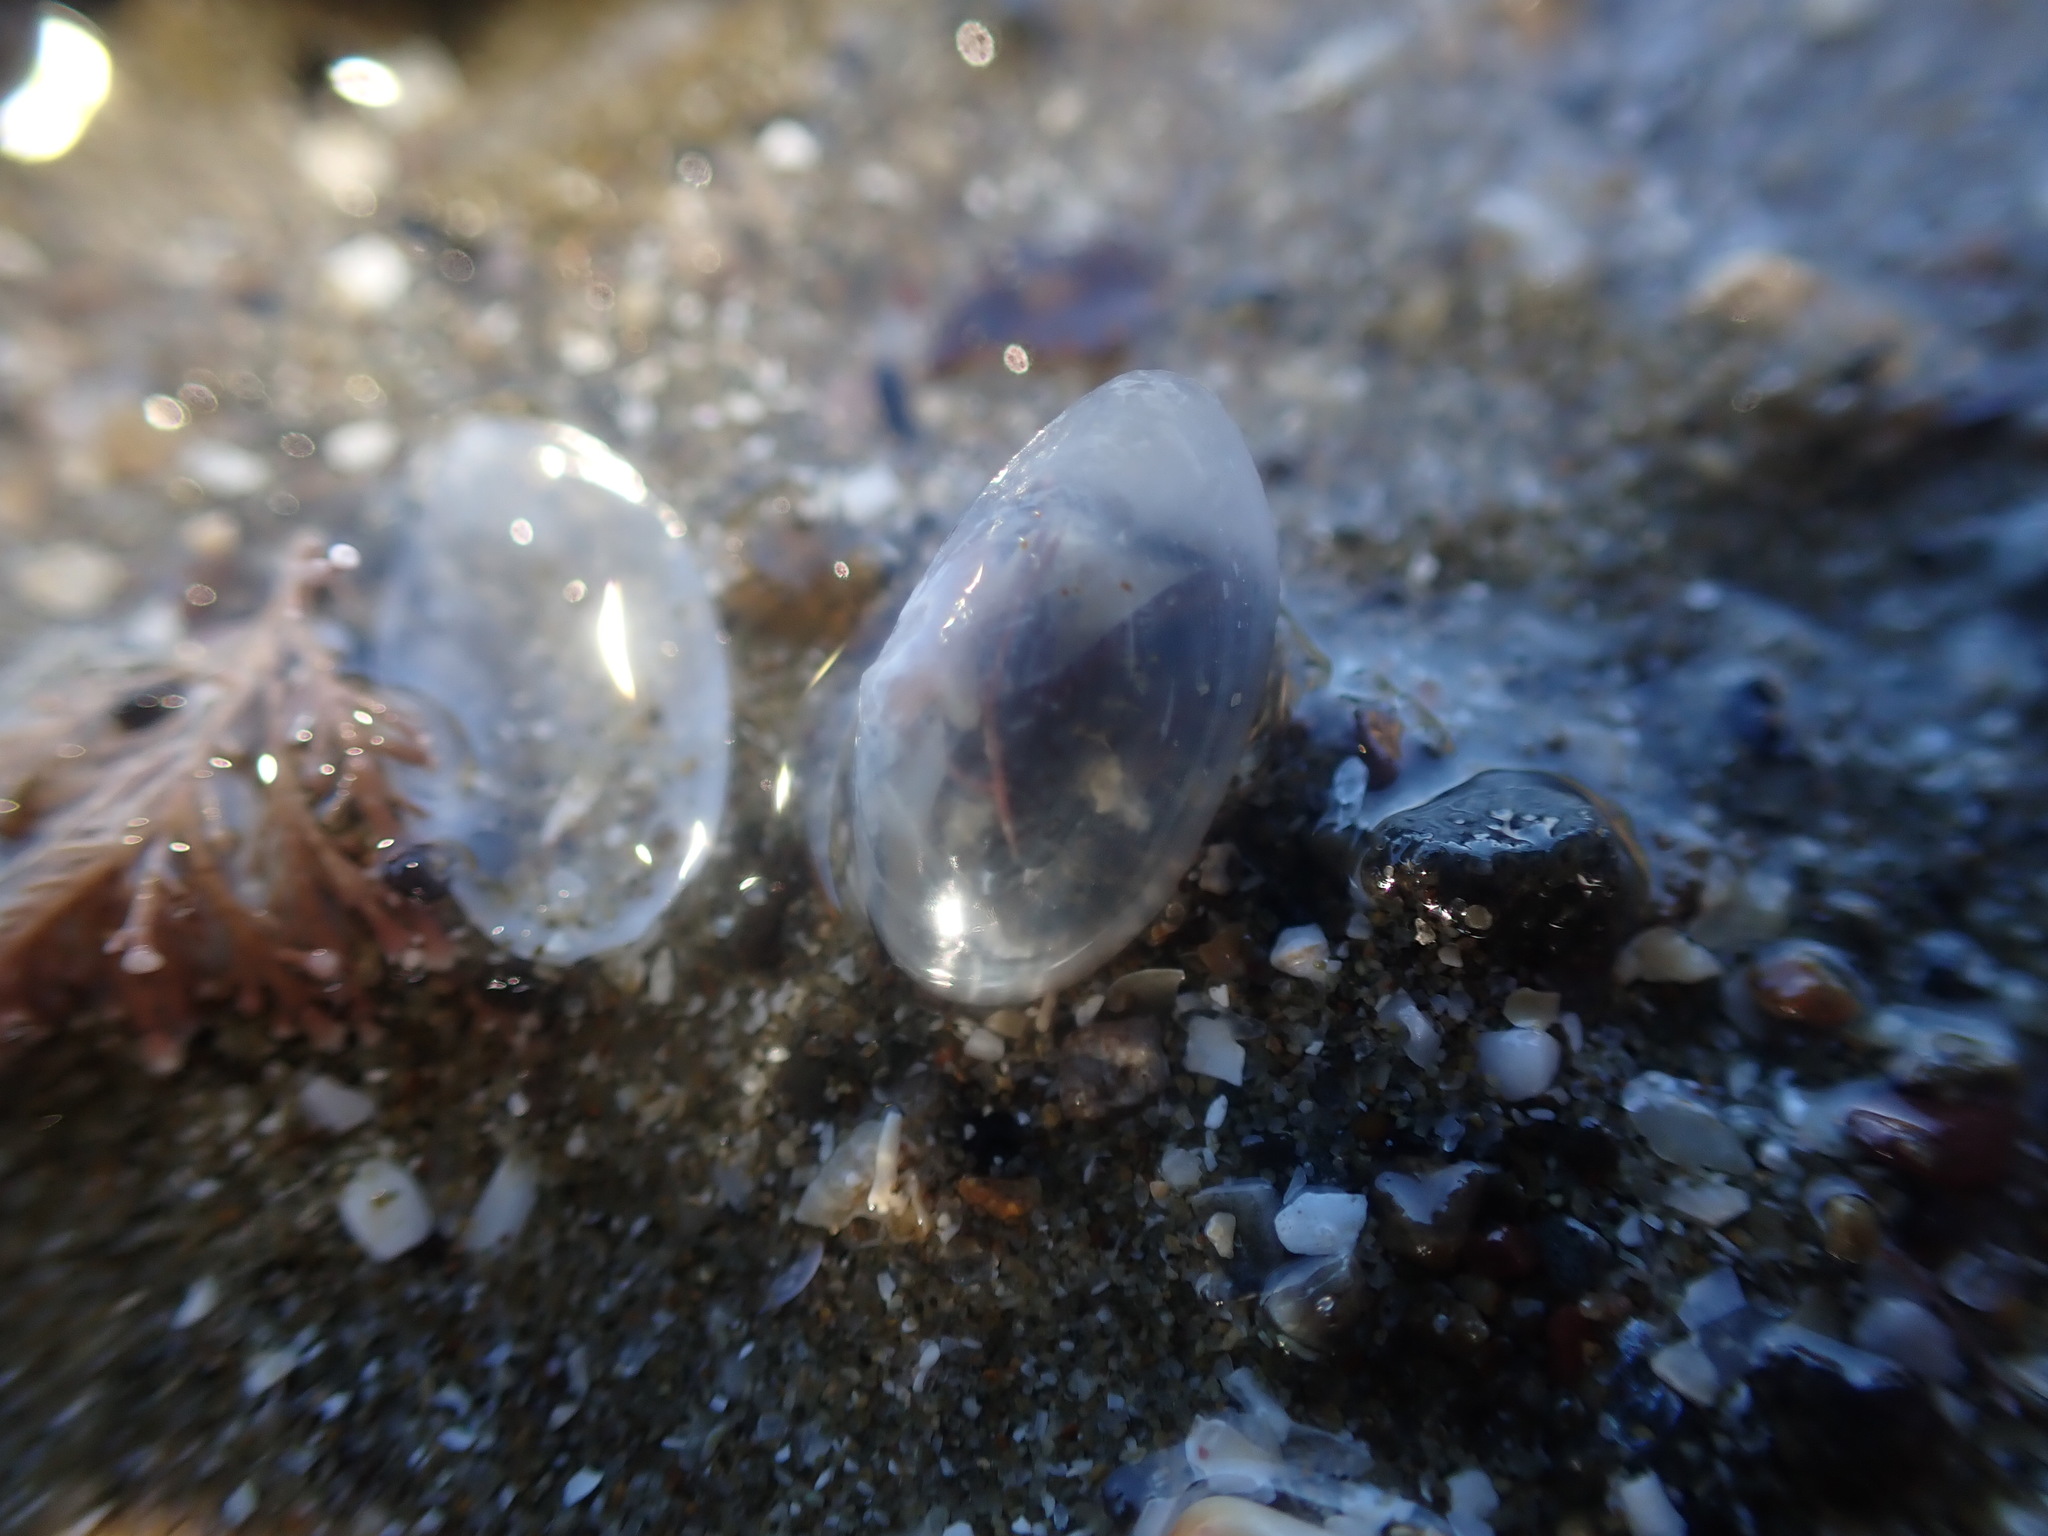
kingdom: Animalia
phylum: Mollusca
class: Bivalvia
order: Cardiida
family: Semelidae
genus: Theora
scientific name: Theora lubrica
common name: Asian semele
